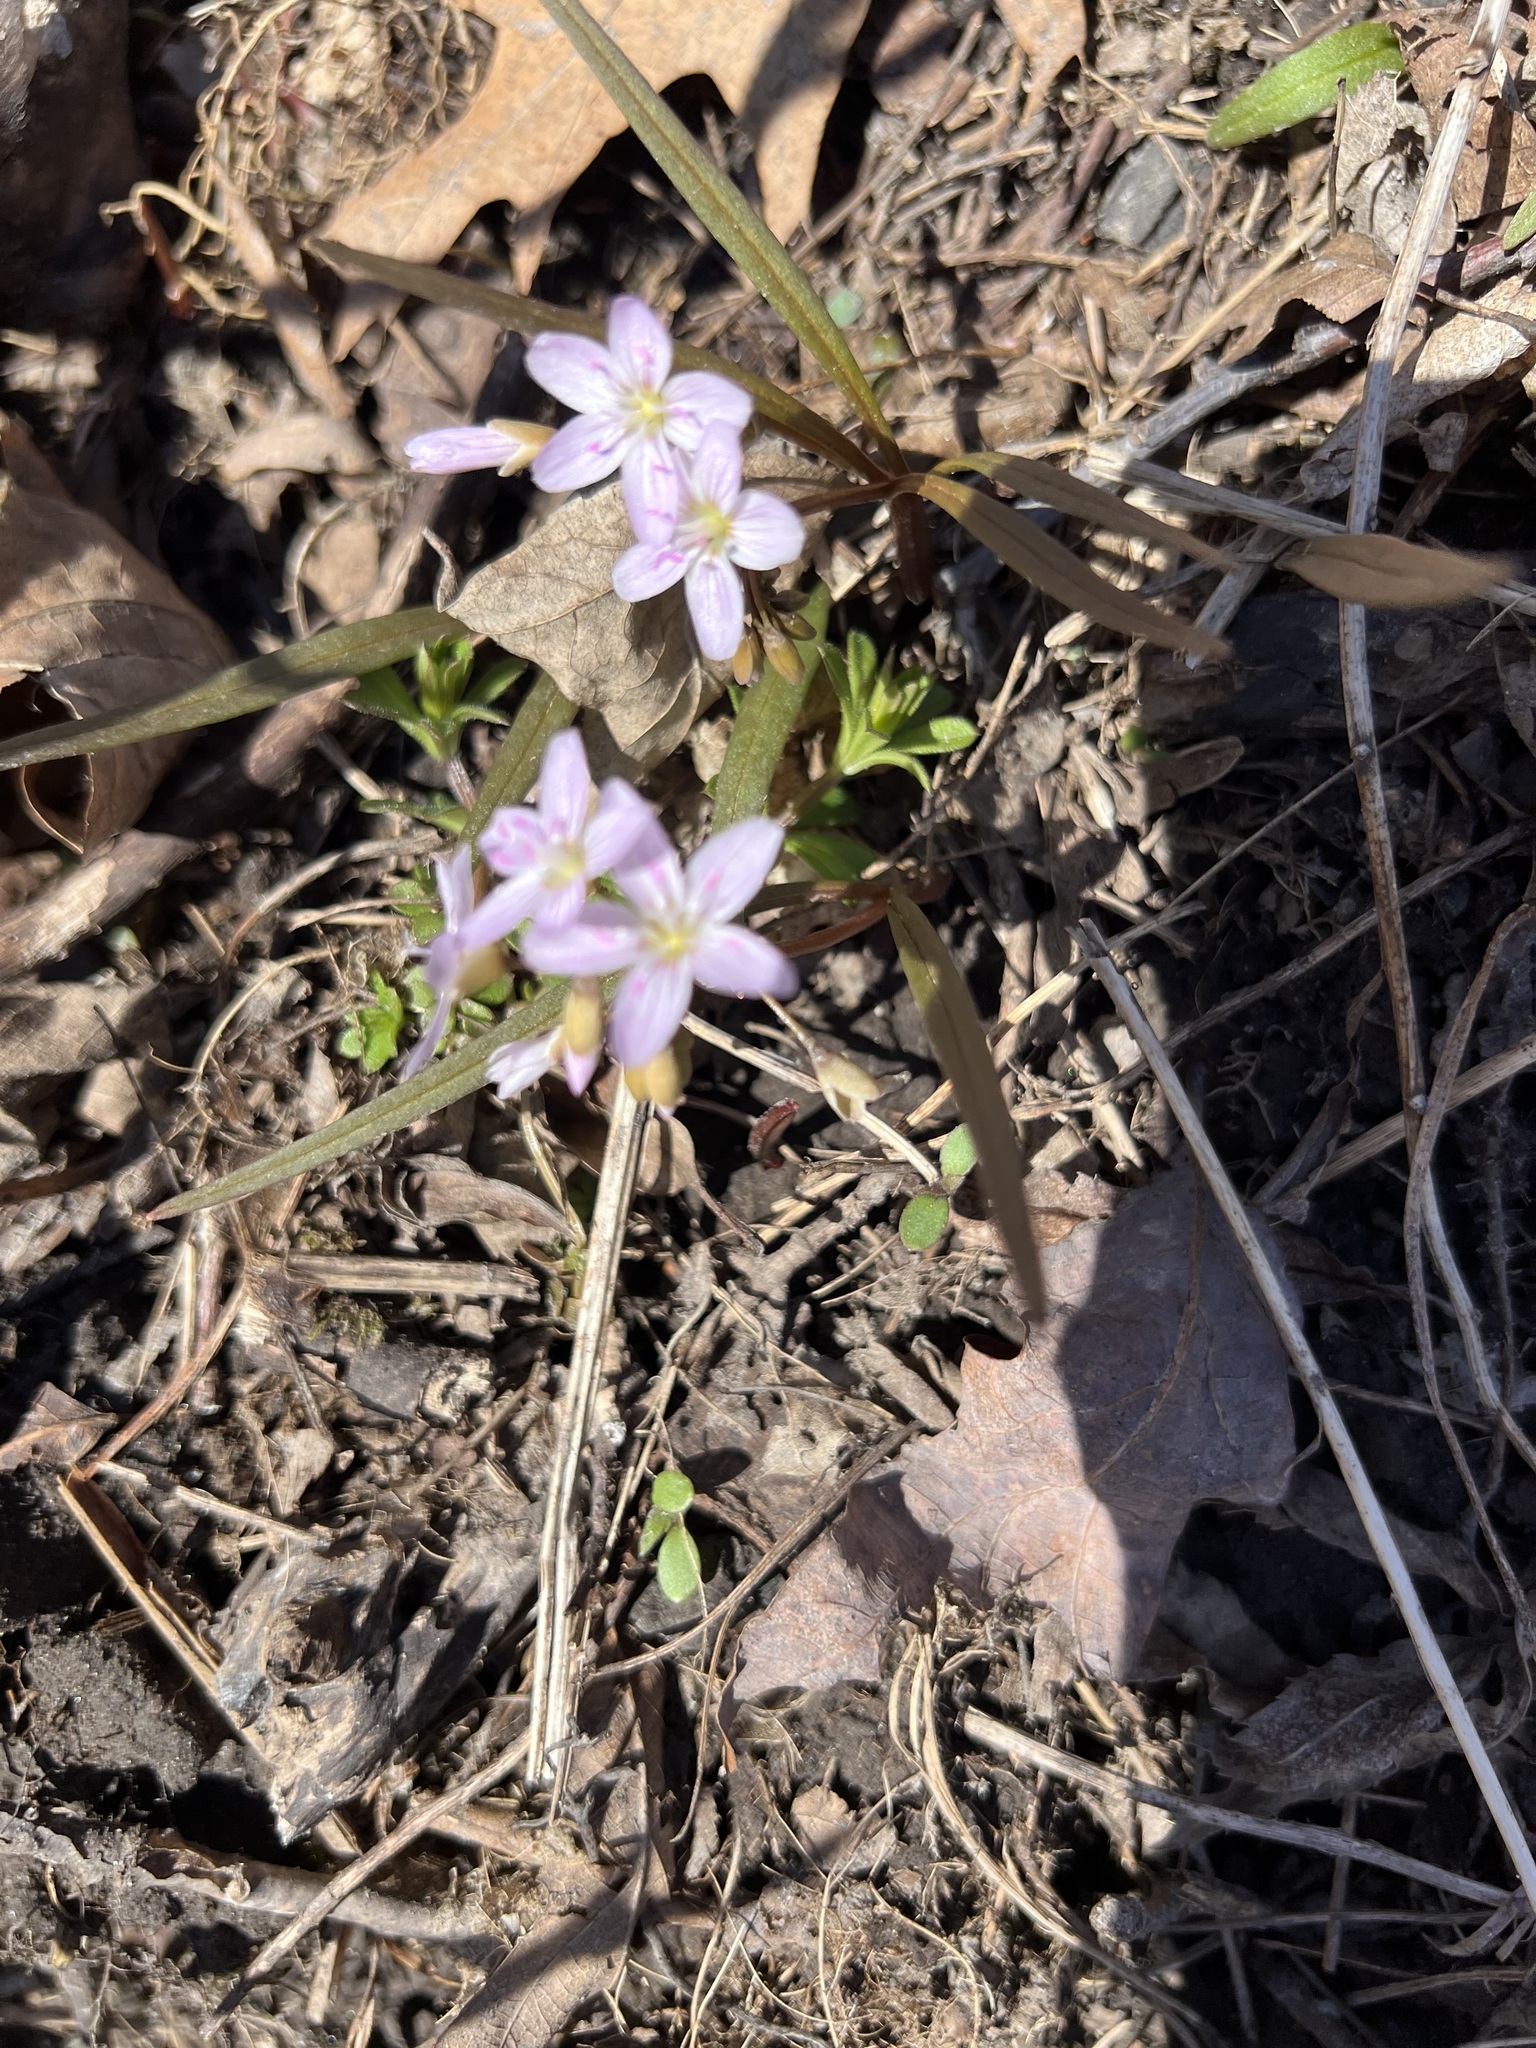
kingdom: Plantae
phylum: Tracheophyta
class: Magnoliopsida
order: Caryophyllales
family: Montiaceae
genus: Claytonia
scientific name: Claytonia virginica
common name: Virginia springbeauty
